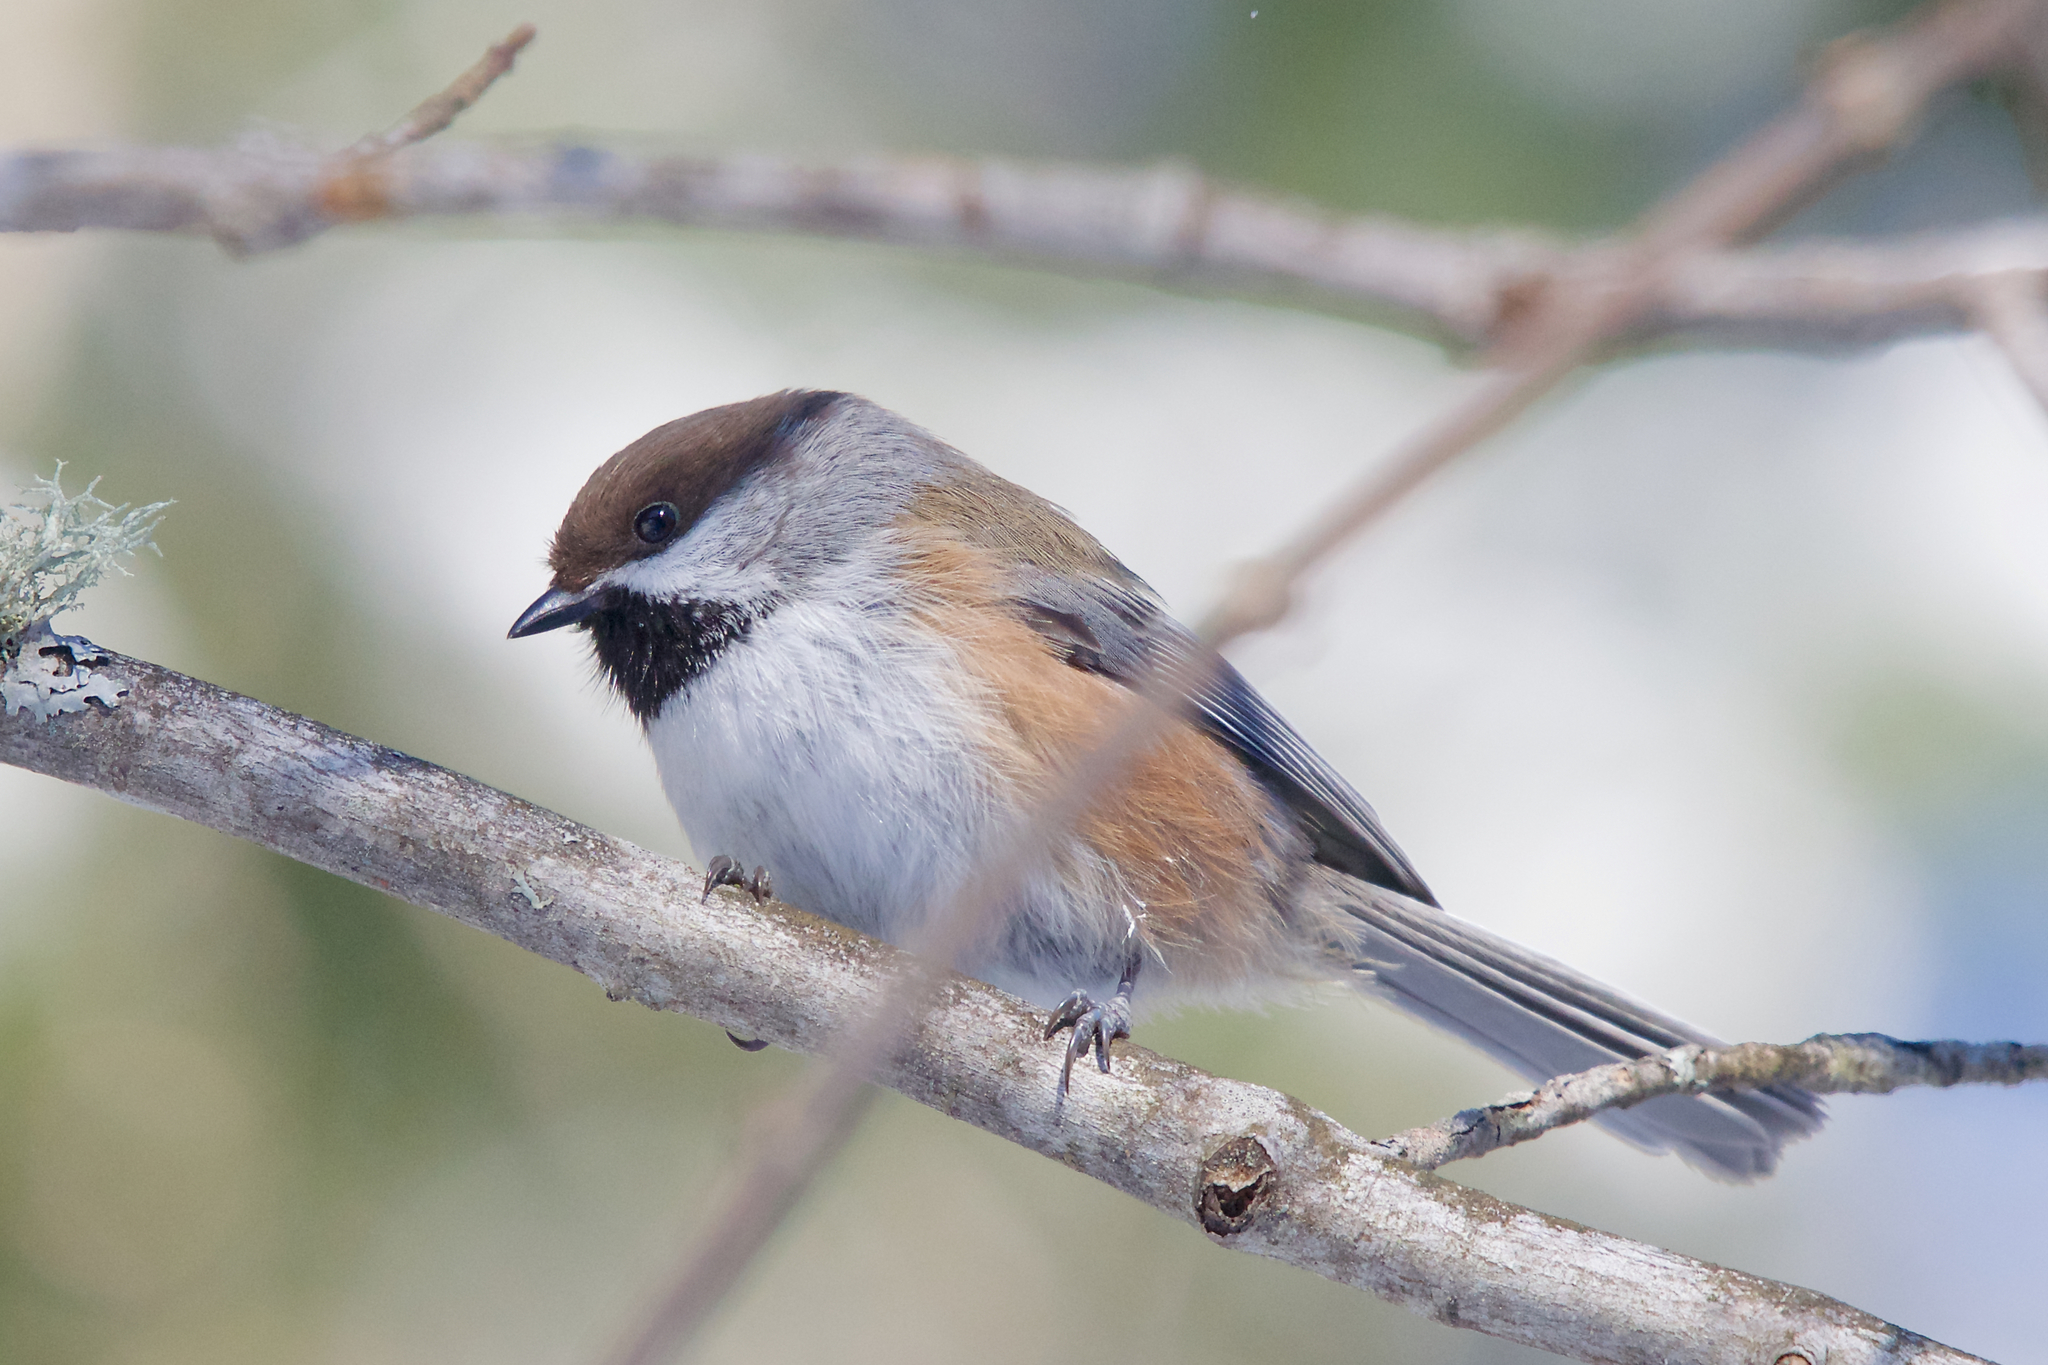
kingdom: Animalia
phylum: Chordata
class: Aves
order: Passeriformes
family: Paridae
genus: Poecile
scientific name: Poecile hudsonicus
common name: Boreal chickadee
